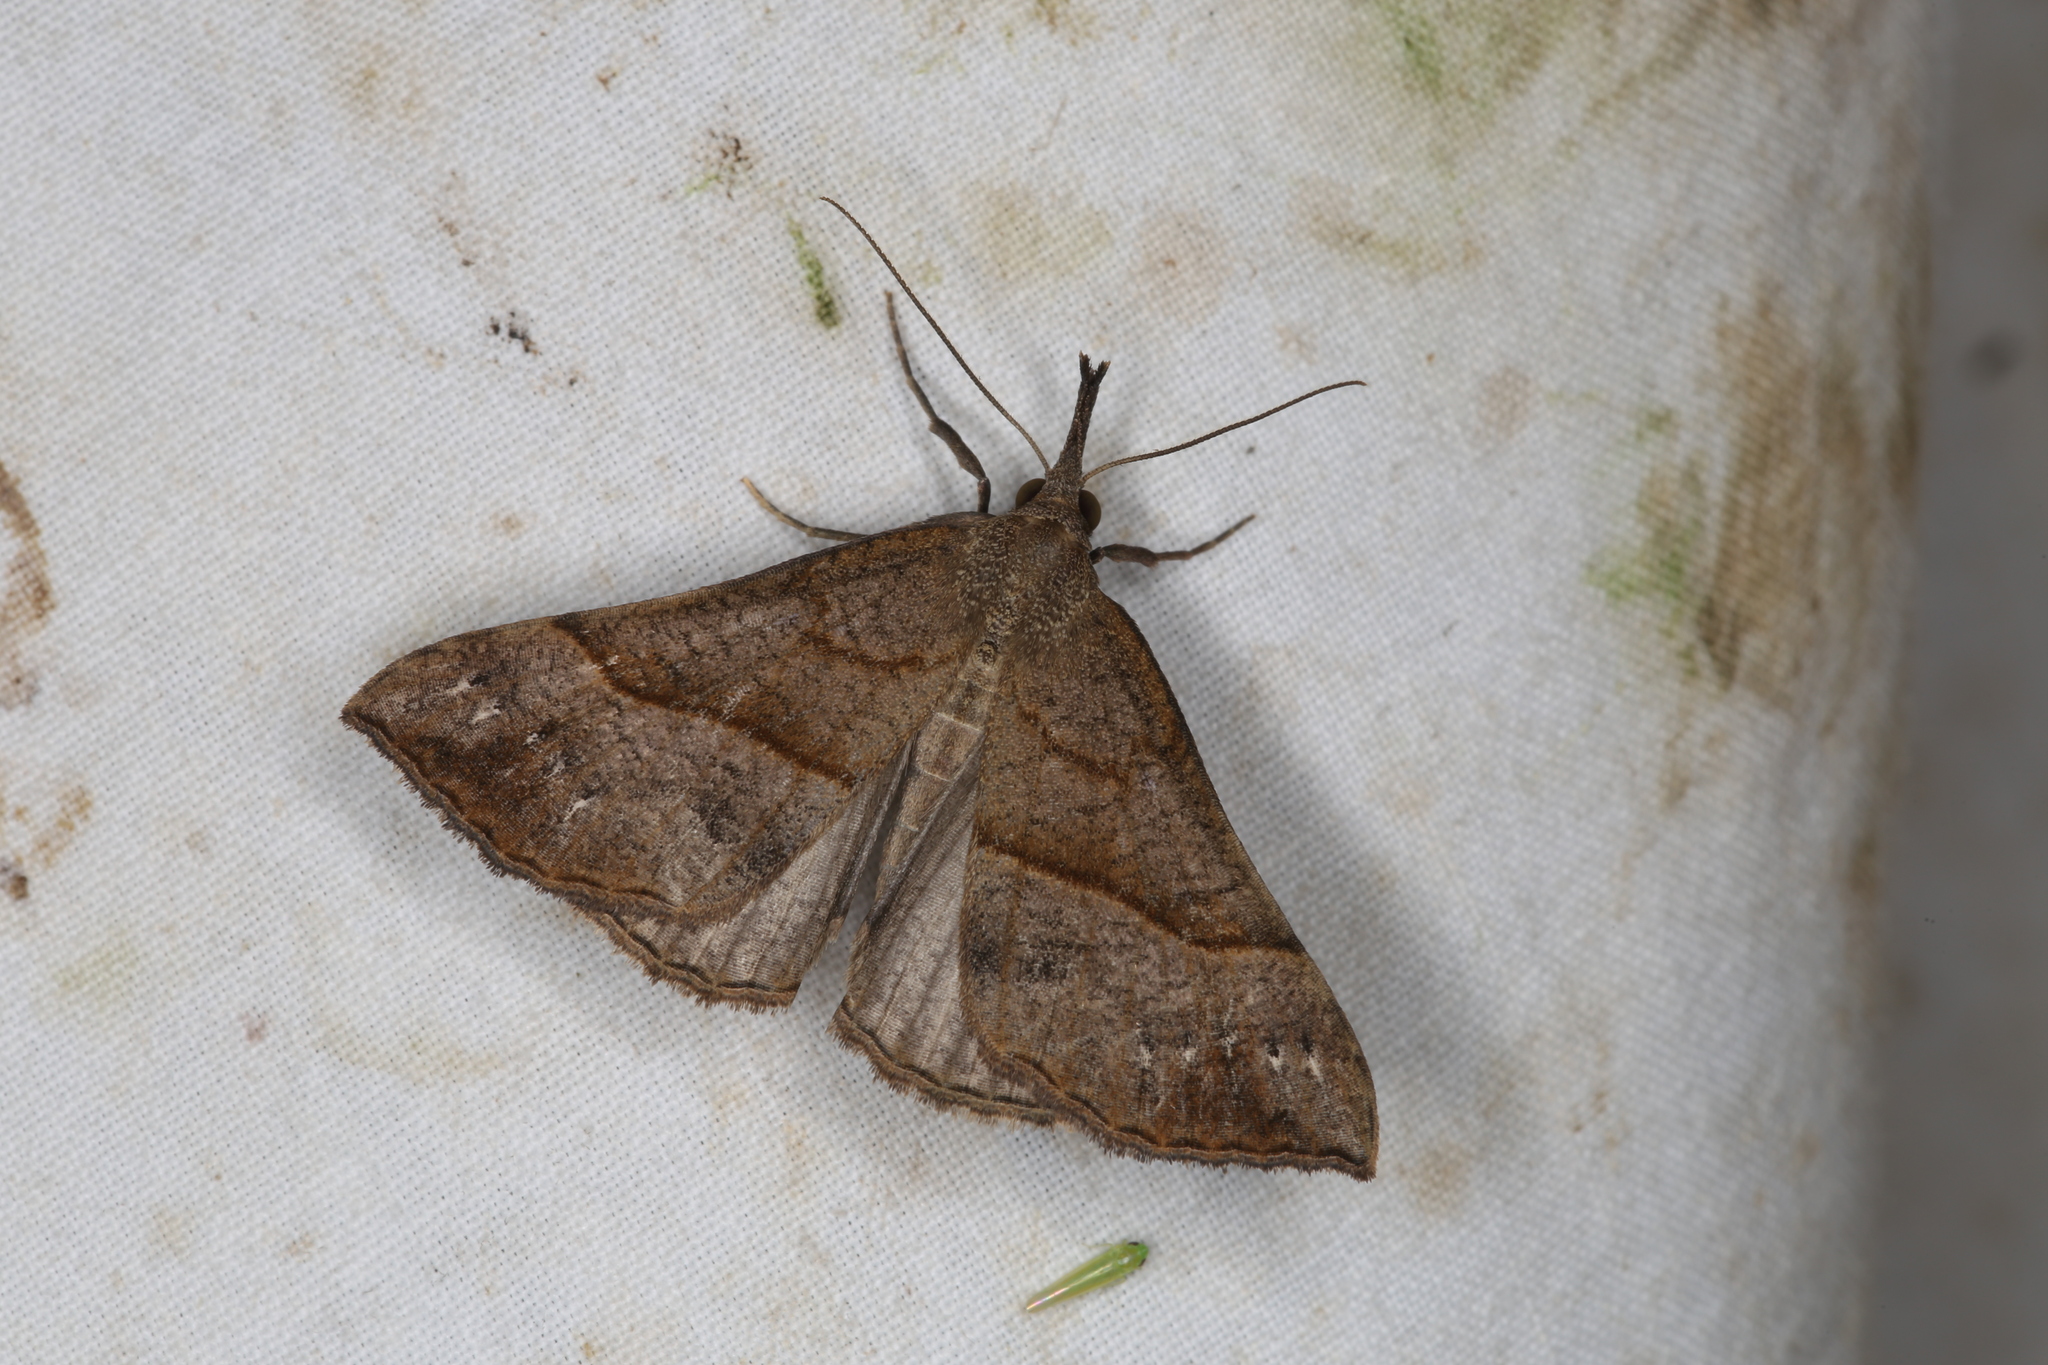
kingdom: Animalia
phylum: Arthropoda
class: Insecta
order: Lepidoptera
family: Erebidae
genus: Hypena
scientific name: Hypena proboscidalis
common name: Snout
